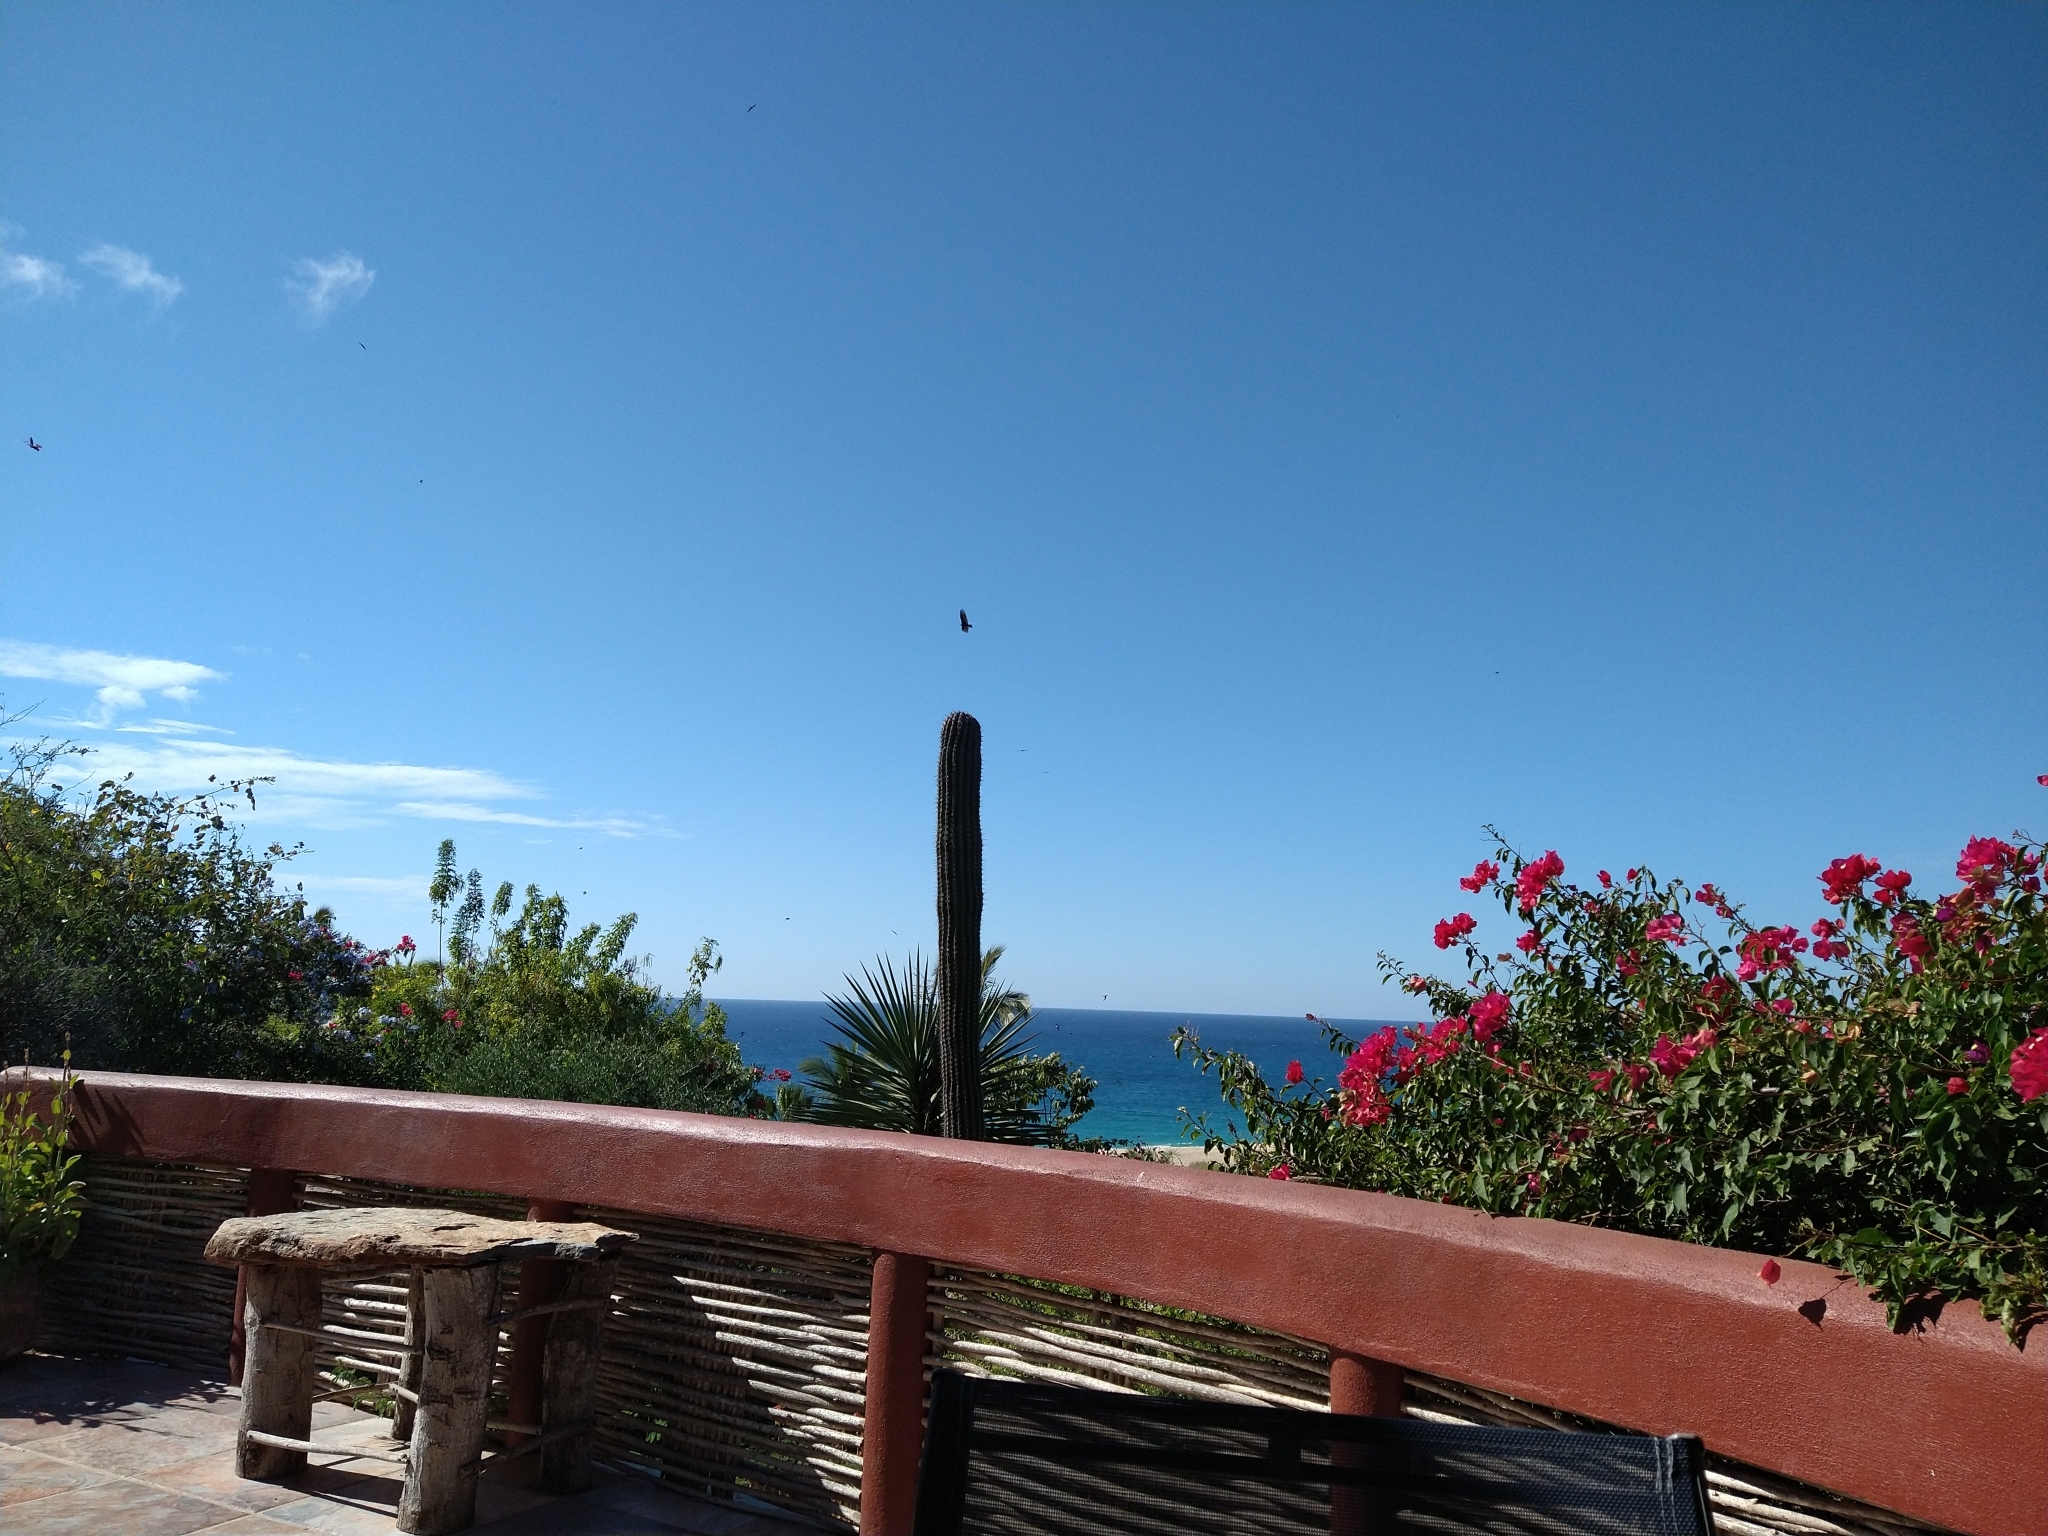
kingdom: Animalia
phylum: Chordata
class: Aves
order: Suliformes
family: Fregatidae
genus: Fregata
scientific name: Fregata magnificens
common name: Magnificent frigatebird
